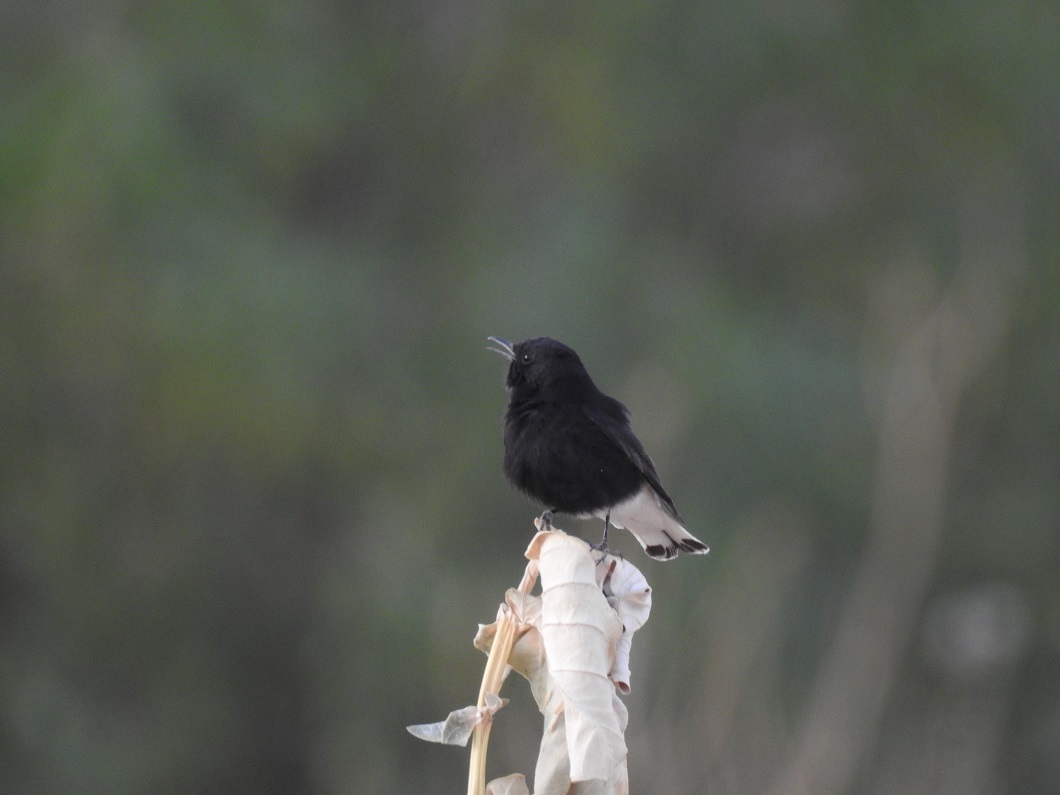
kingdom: Animalia
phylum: Chordata
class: Aves
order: Passeriformes
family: Muscicapidae
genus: Oenanthe
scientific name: Oenanthe leucopyga
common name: White-crowned wheatear
